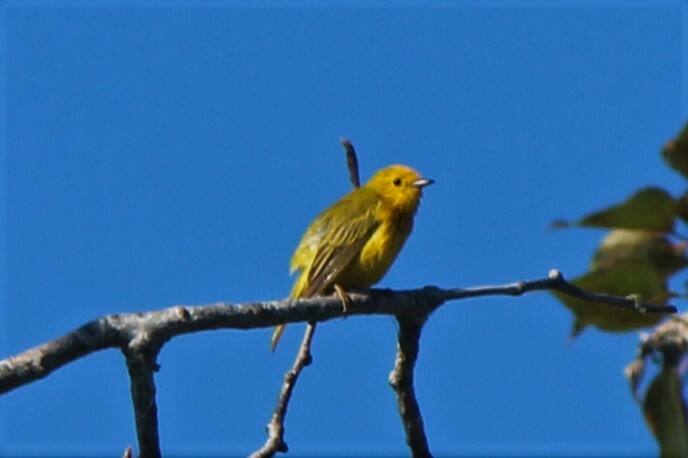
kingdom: Animalia
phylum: Chordata
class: Aves
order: Passeriformes
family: Parulidae
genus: Setophaga
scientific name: Setophaga petechia
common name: Yellow warbler
